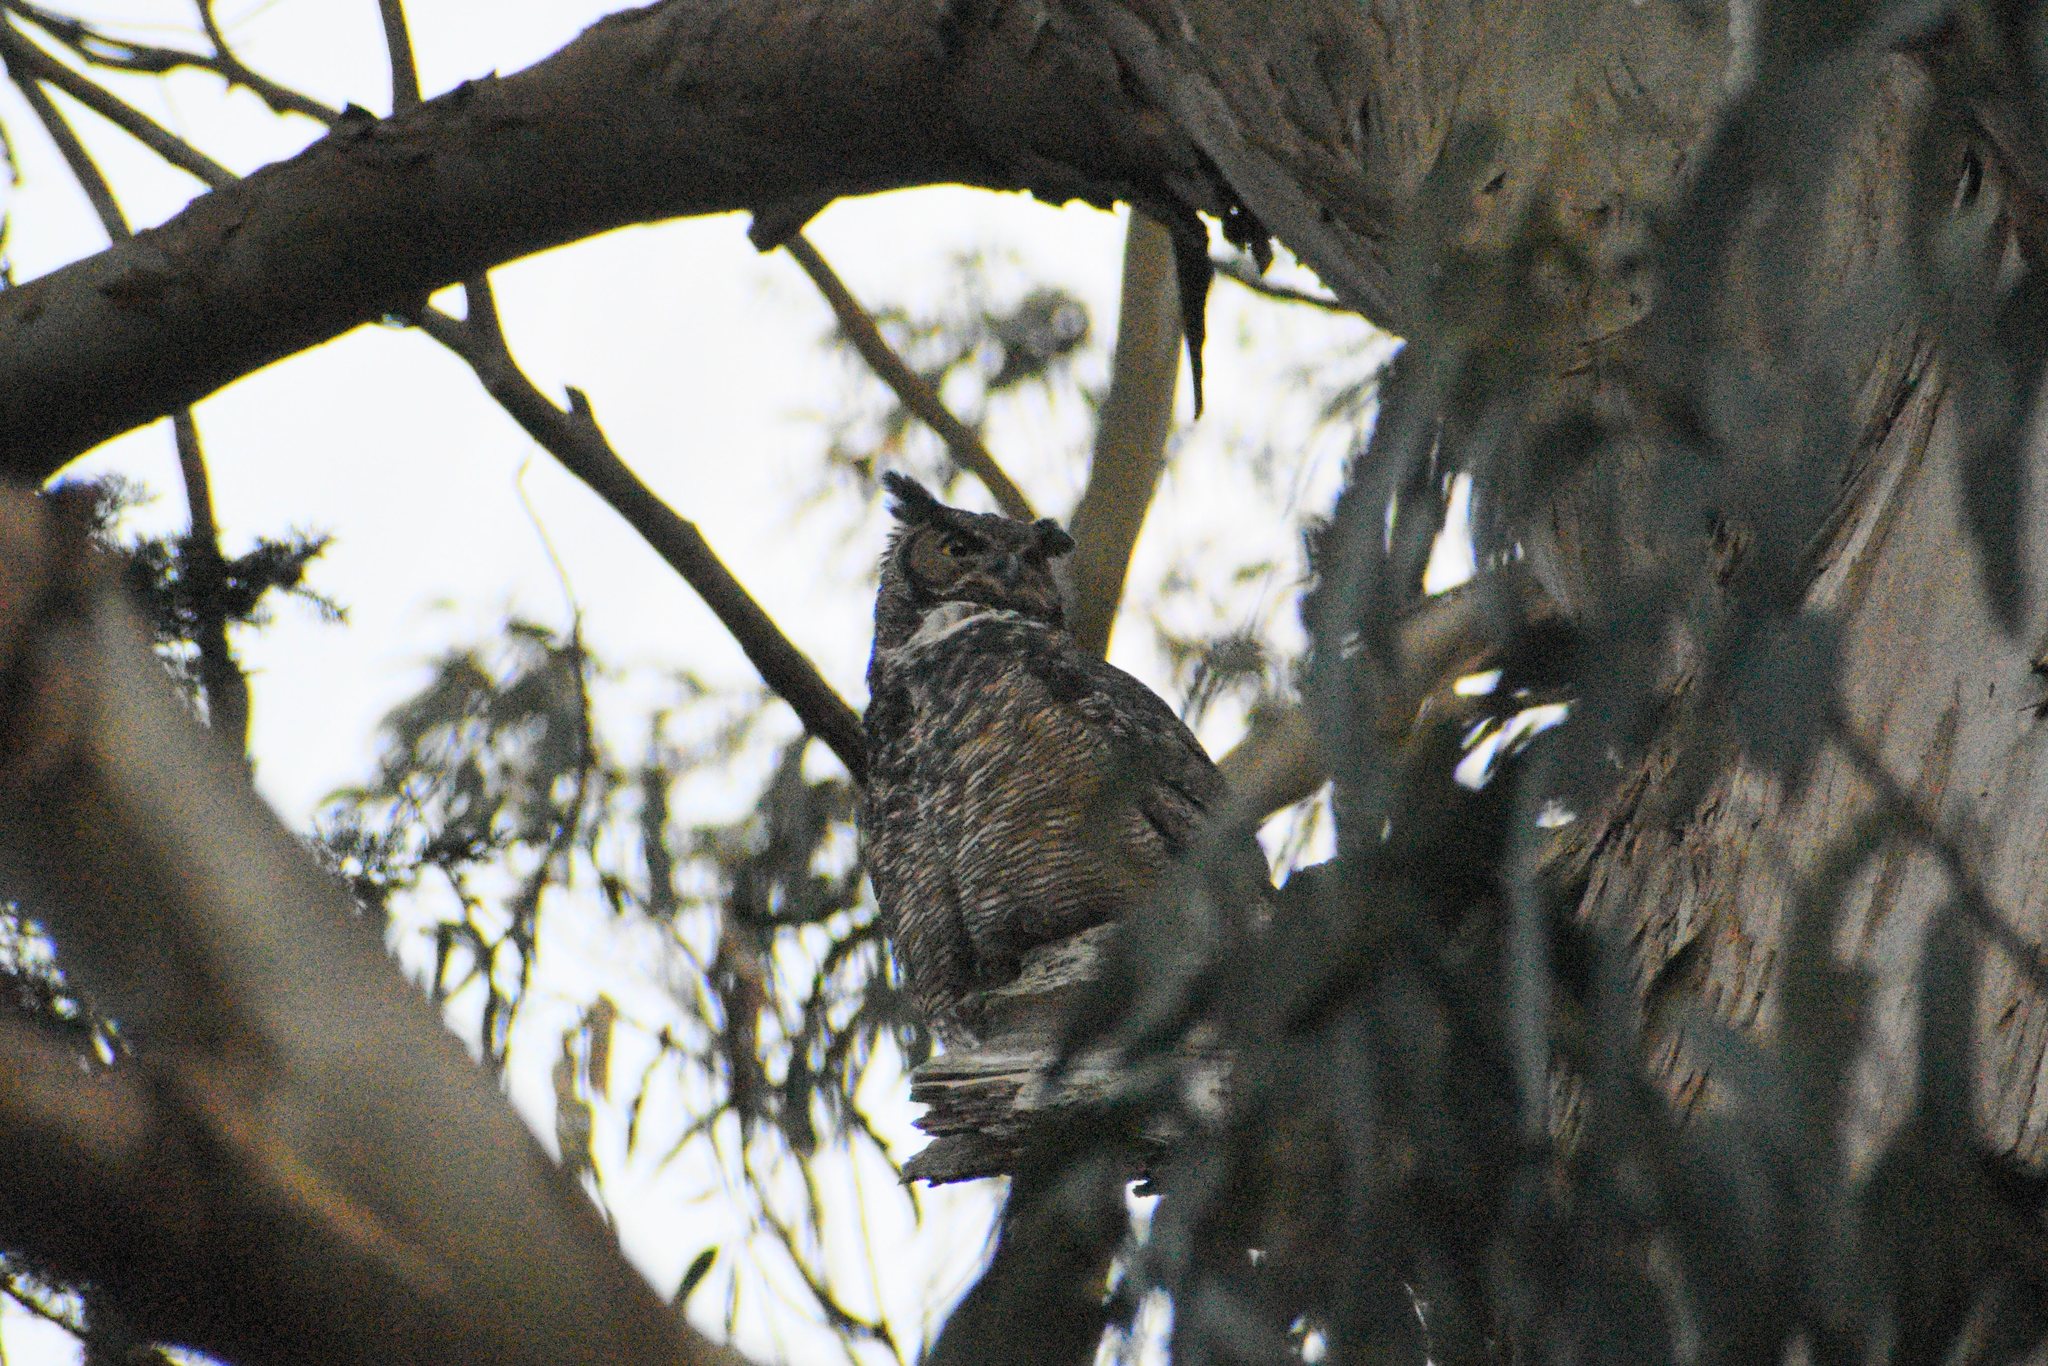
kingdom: Animalia
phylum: Chordata
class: Aves
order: Strigiformes
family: Strigidae
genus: Bubo
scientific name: Bubo virginianus
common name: Great horned owl
